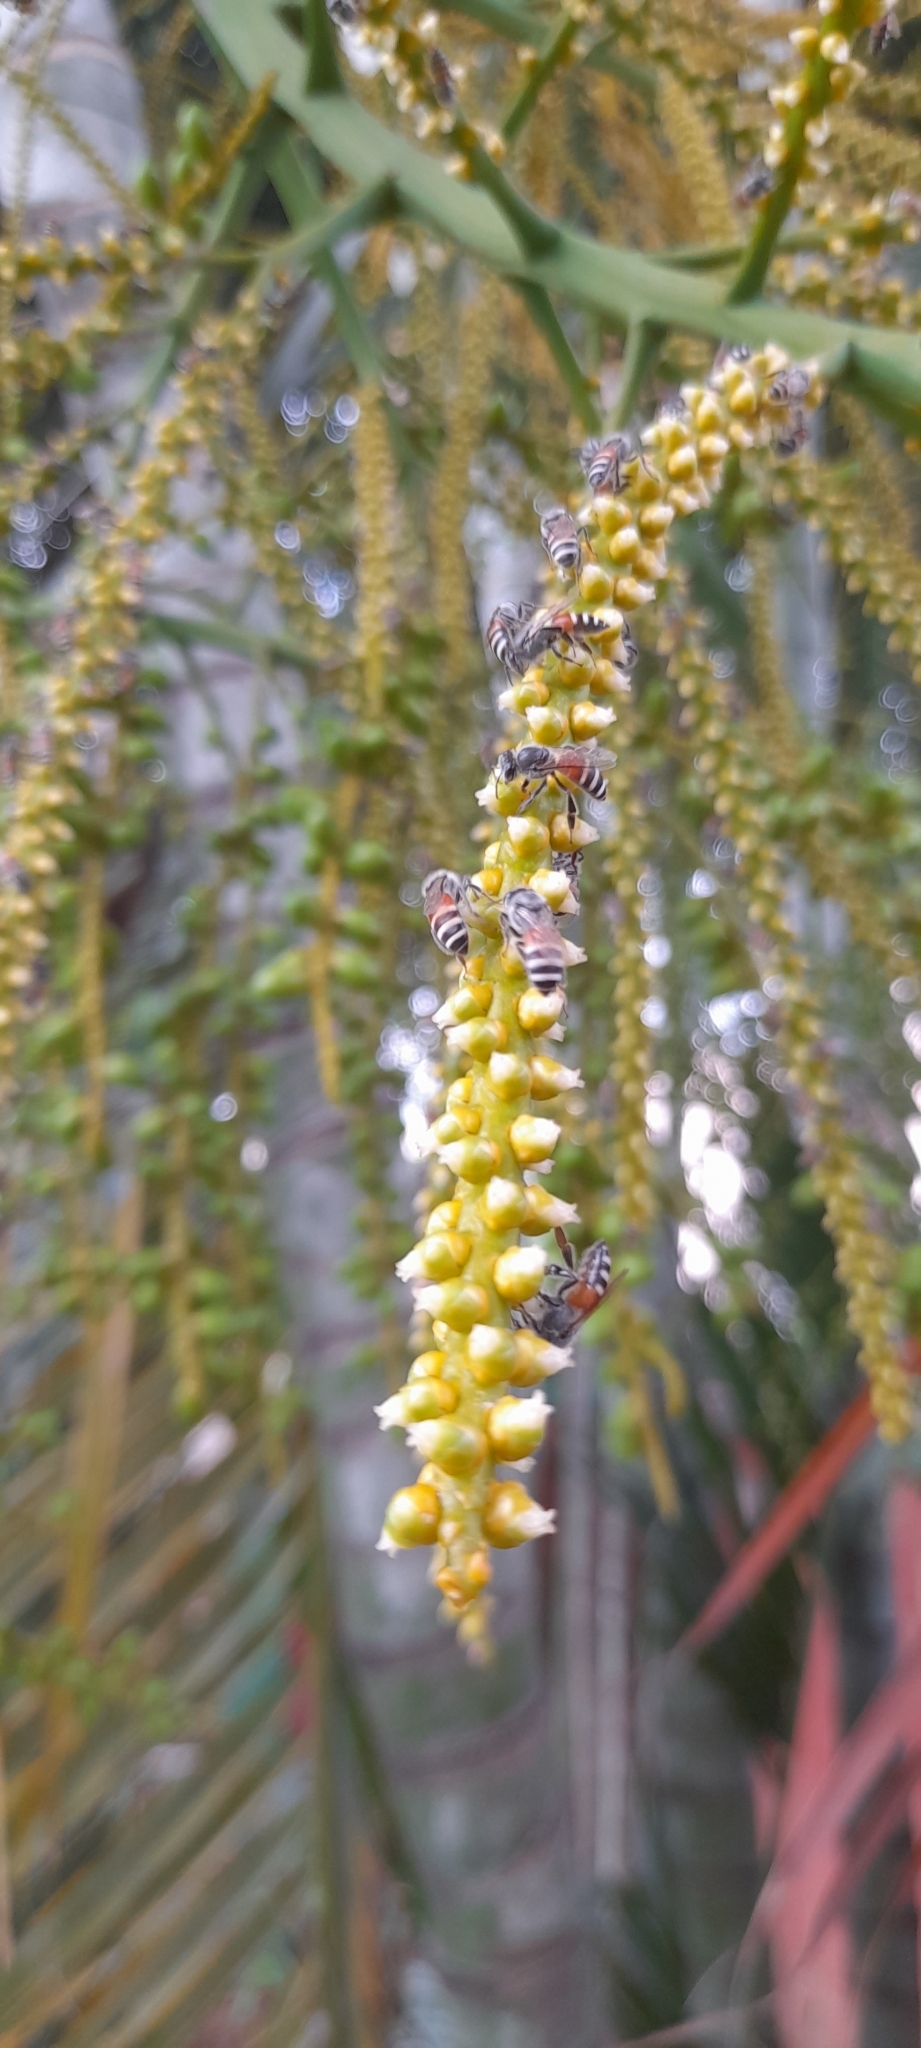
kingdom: Animalia
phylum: Arthropoda
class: Insecta
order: Hymenoptera
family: Apidae
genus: Apis
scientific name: Apis florea
